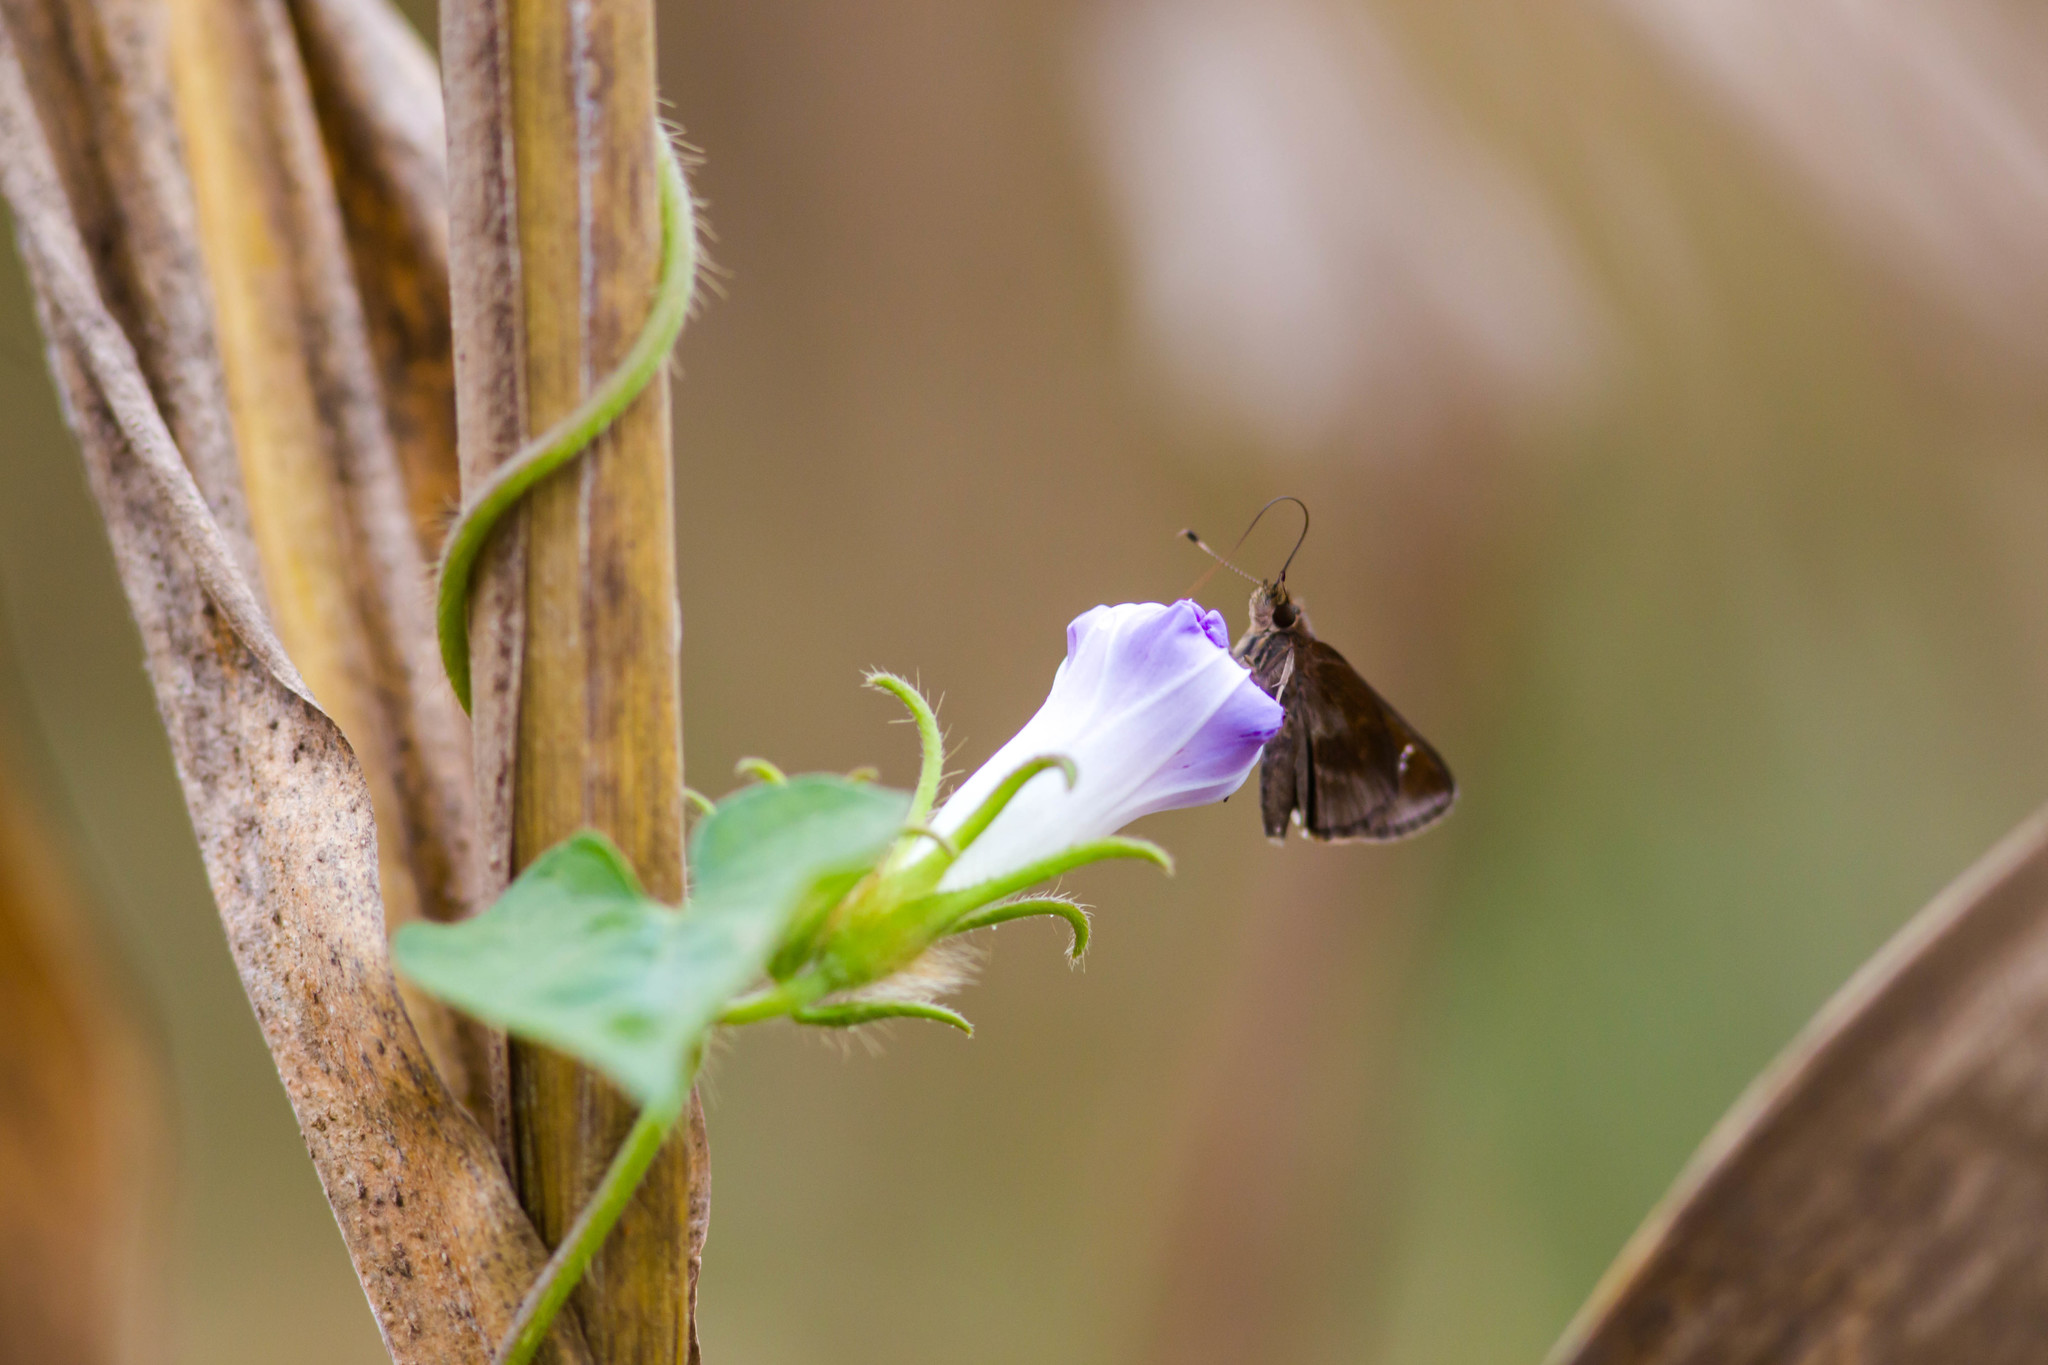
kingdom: Animalia
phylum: Arthropoda
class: Insecta
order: Lepidoptera
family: Hesperiidae
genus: Lerema
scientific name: Lerema accius
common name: Clouded skipper
